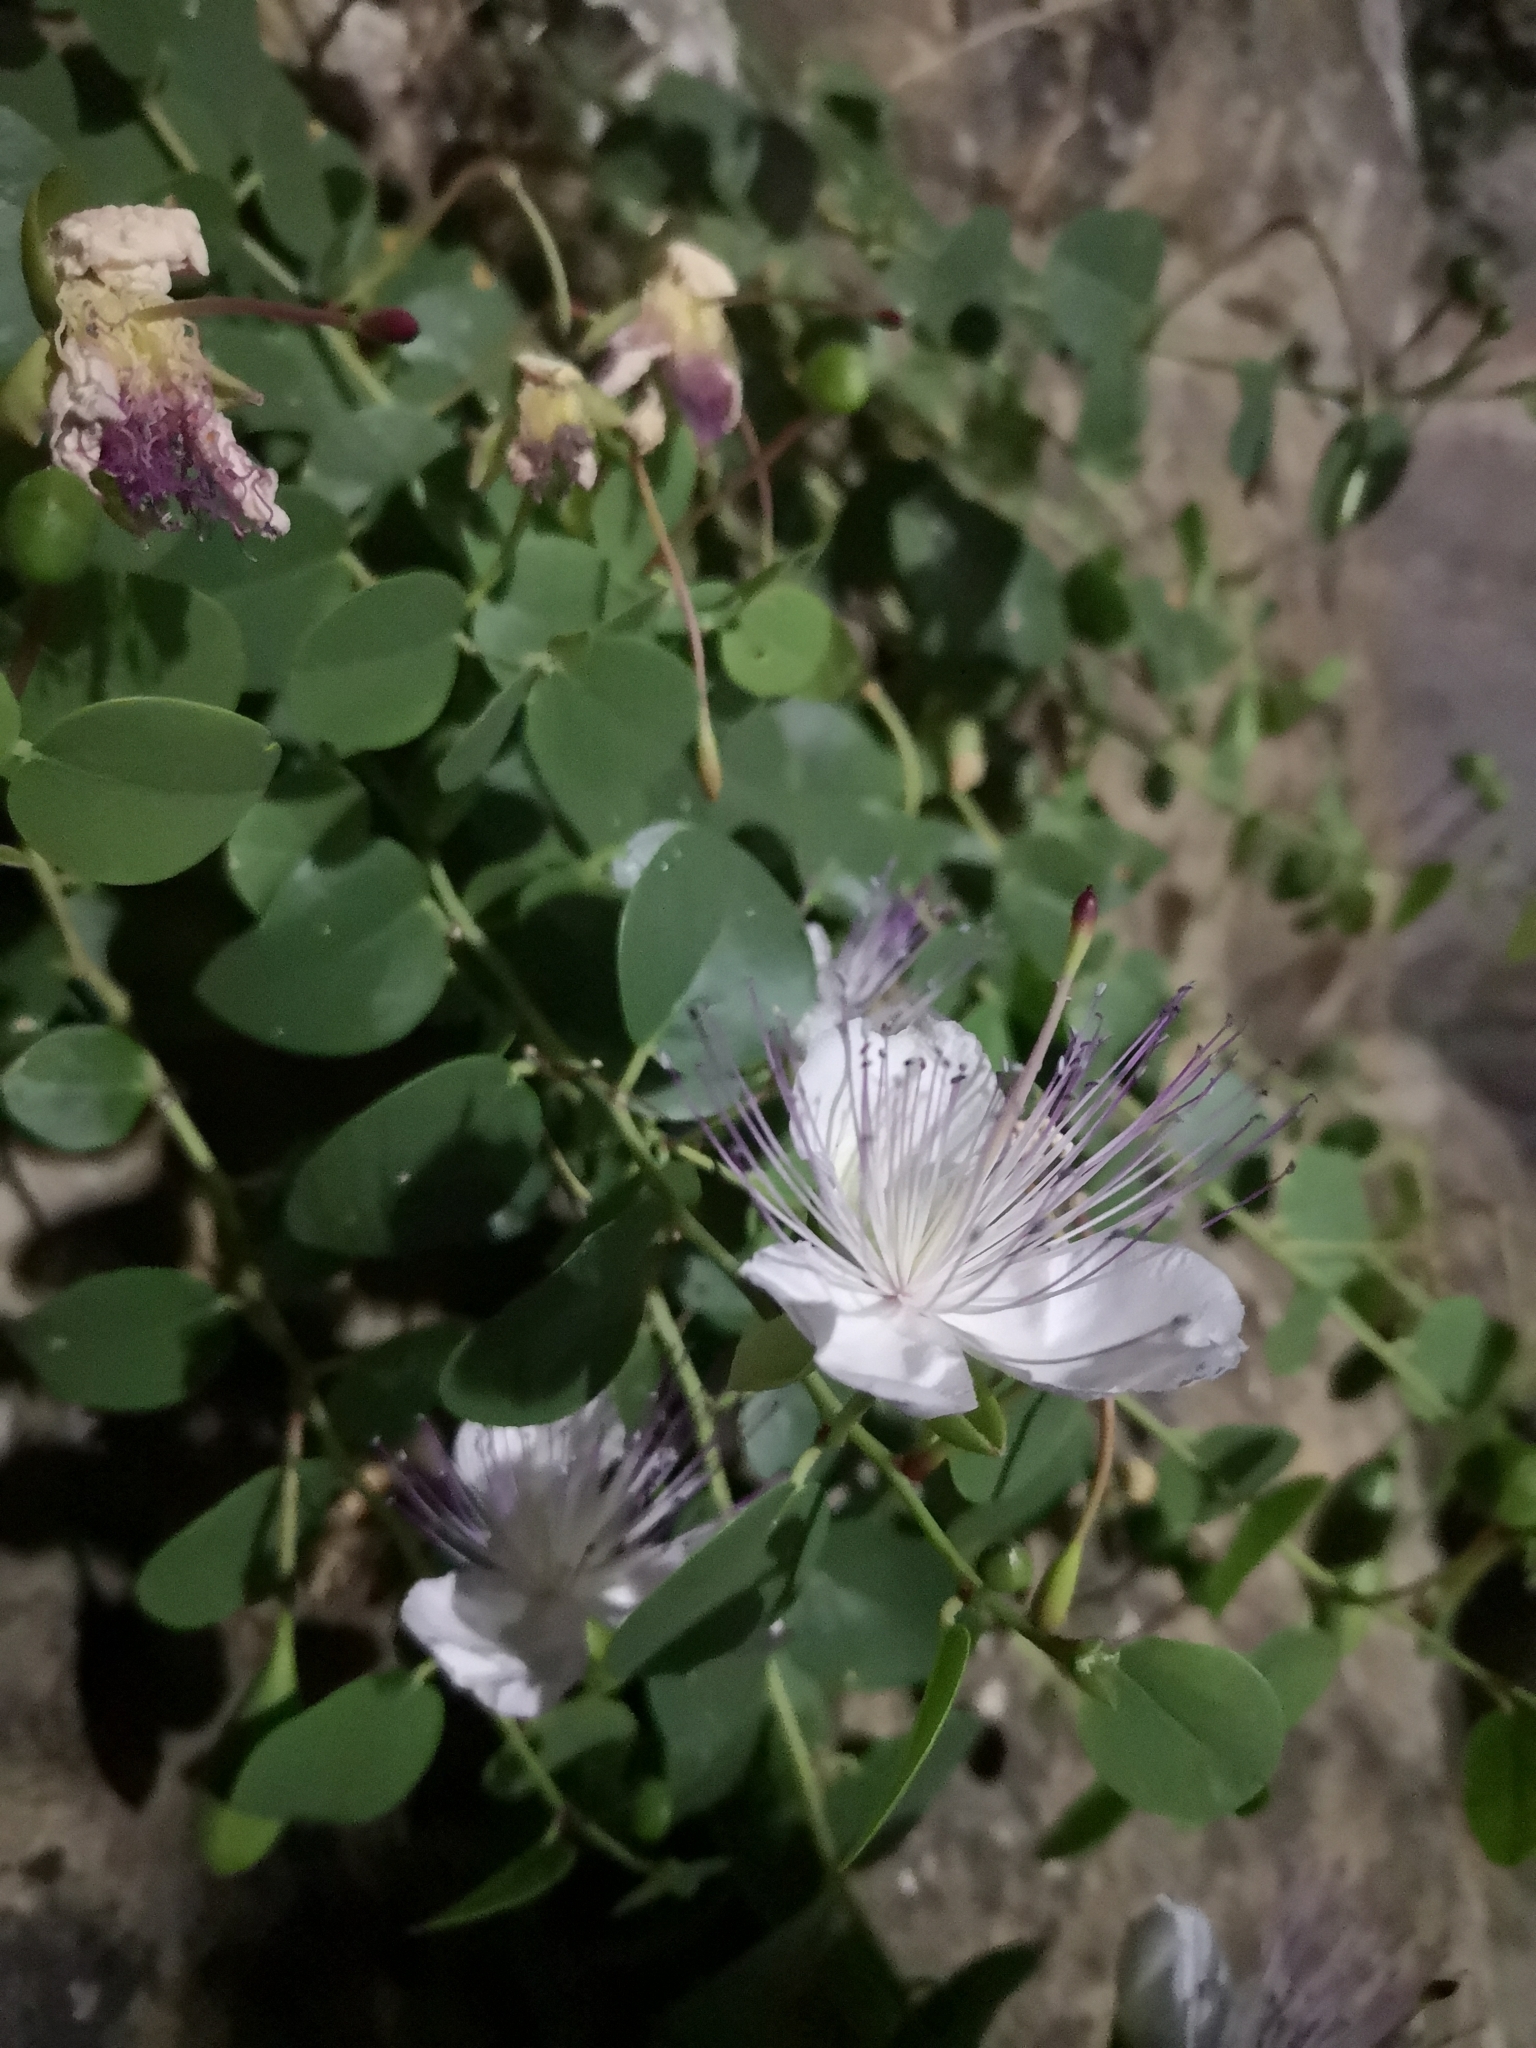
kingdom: Plantae
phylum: Tracheophyta
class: Magnoliopsida
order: Brassicales
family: Capparaceae
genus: Capparis
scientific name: Capparis orientalis
